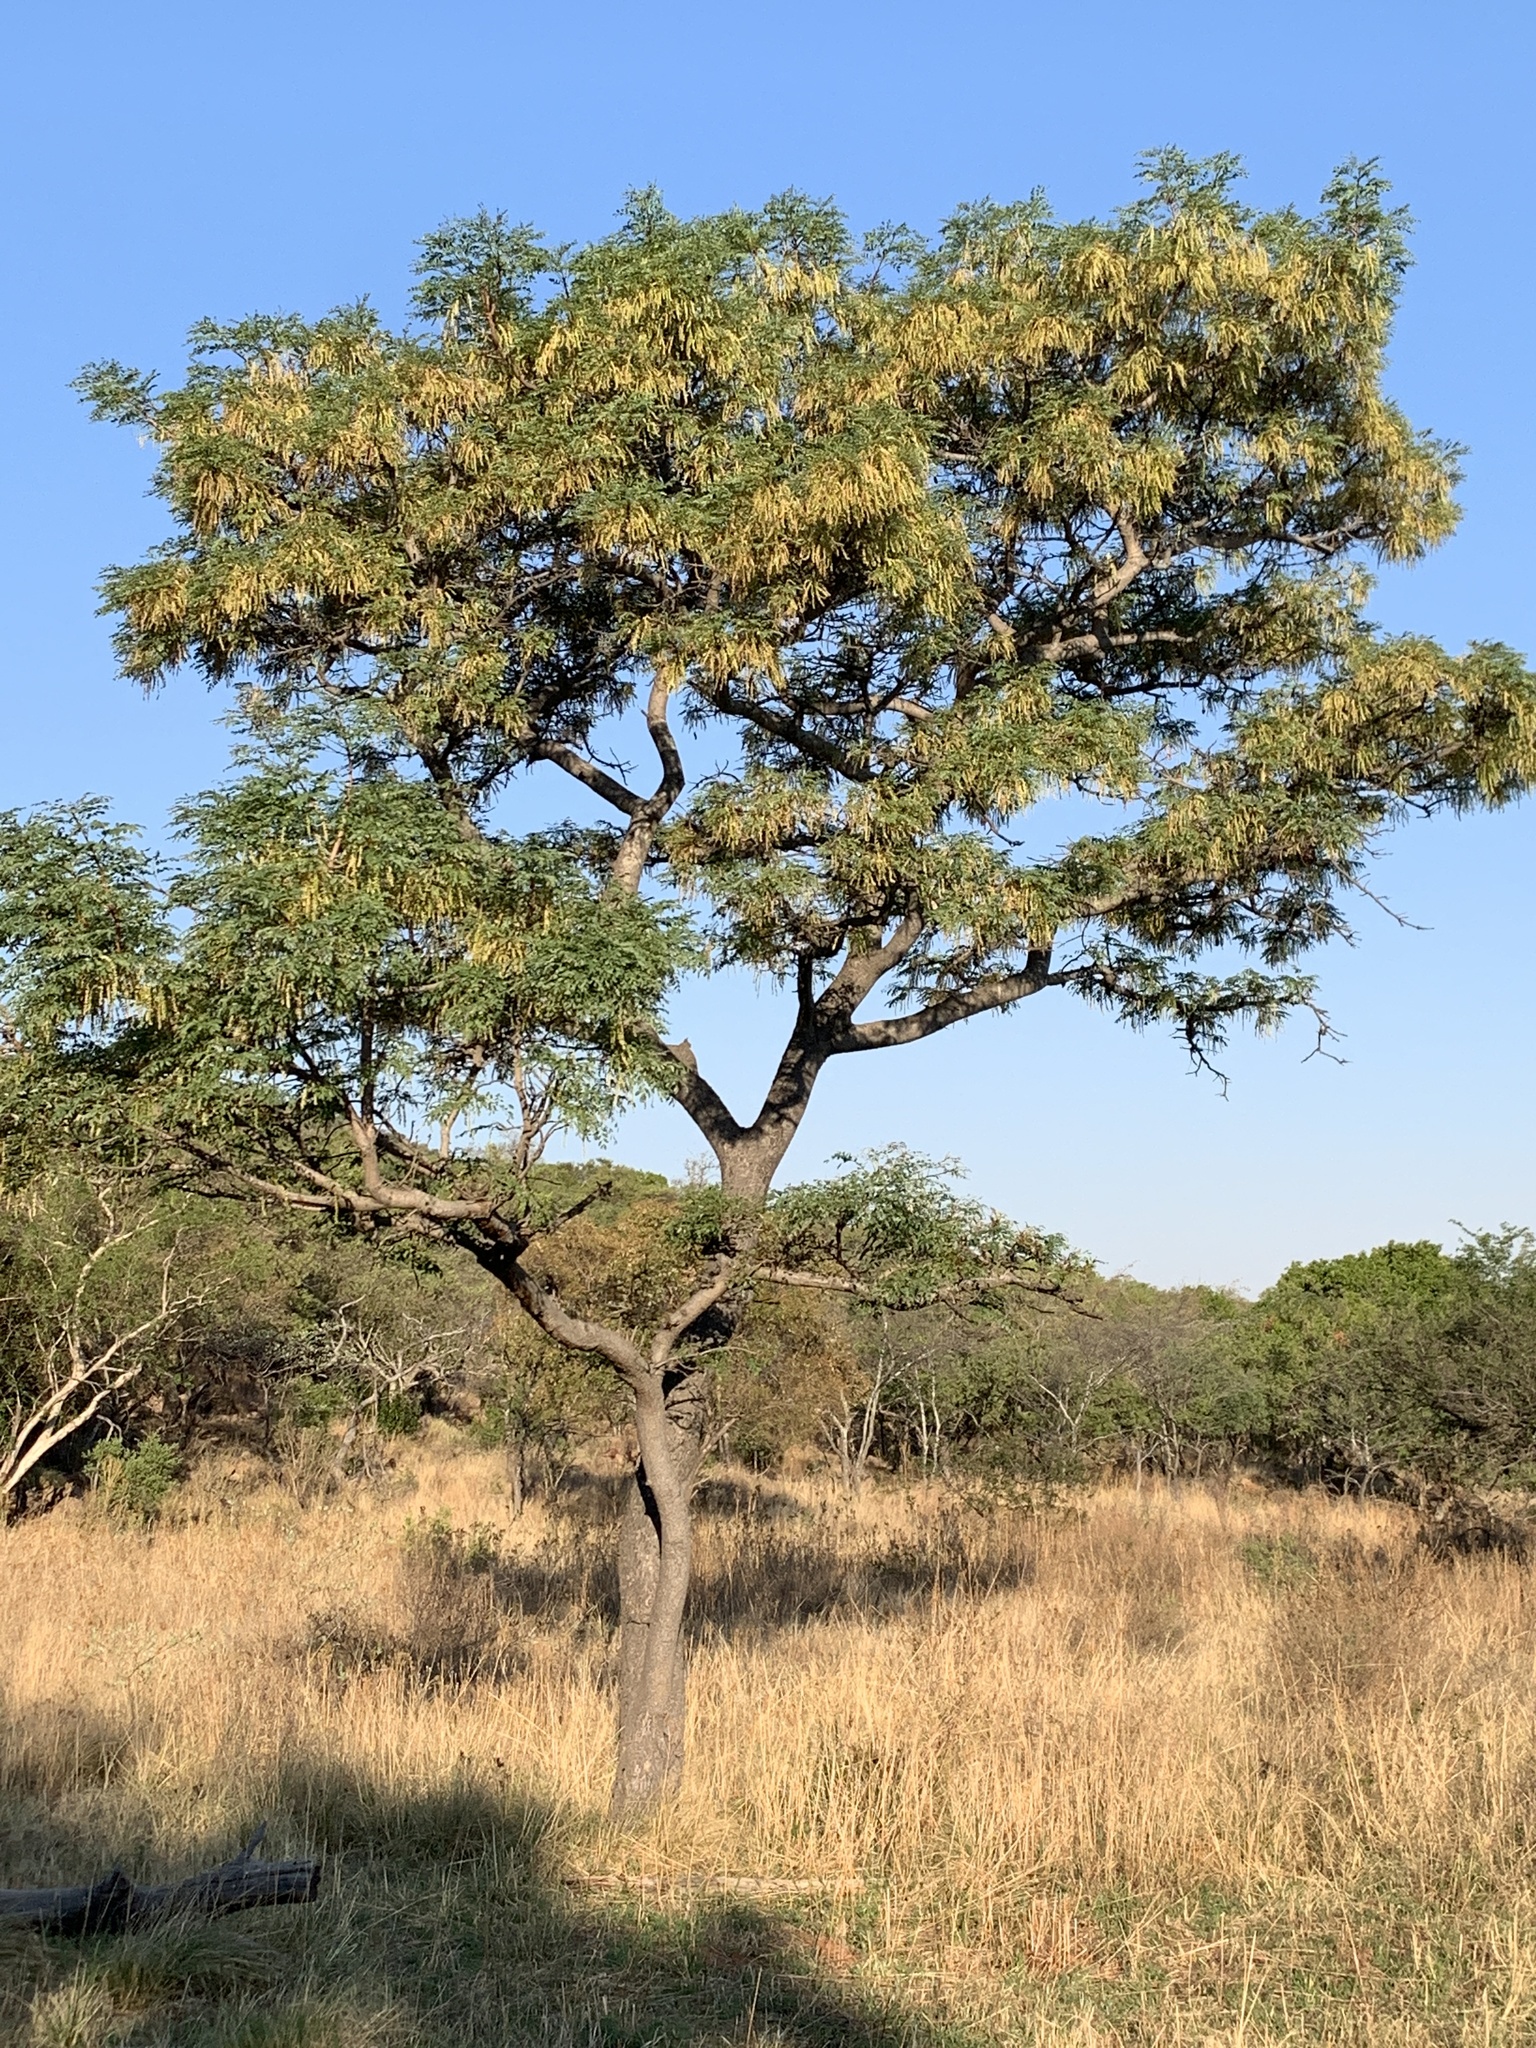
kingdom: Plantae
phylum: Tracheophyta
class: Magnoliopsida
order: Fabales
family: Fabaceae
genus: Burkea
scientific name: Burkea africana
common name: Mkalati tree
